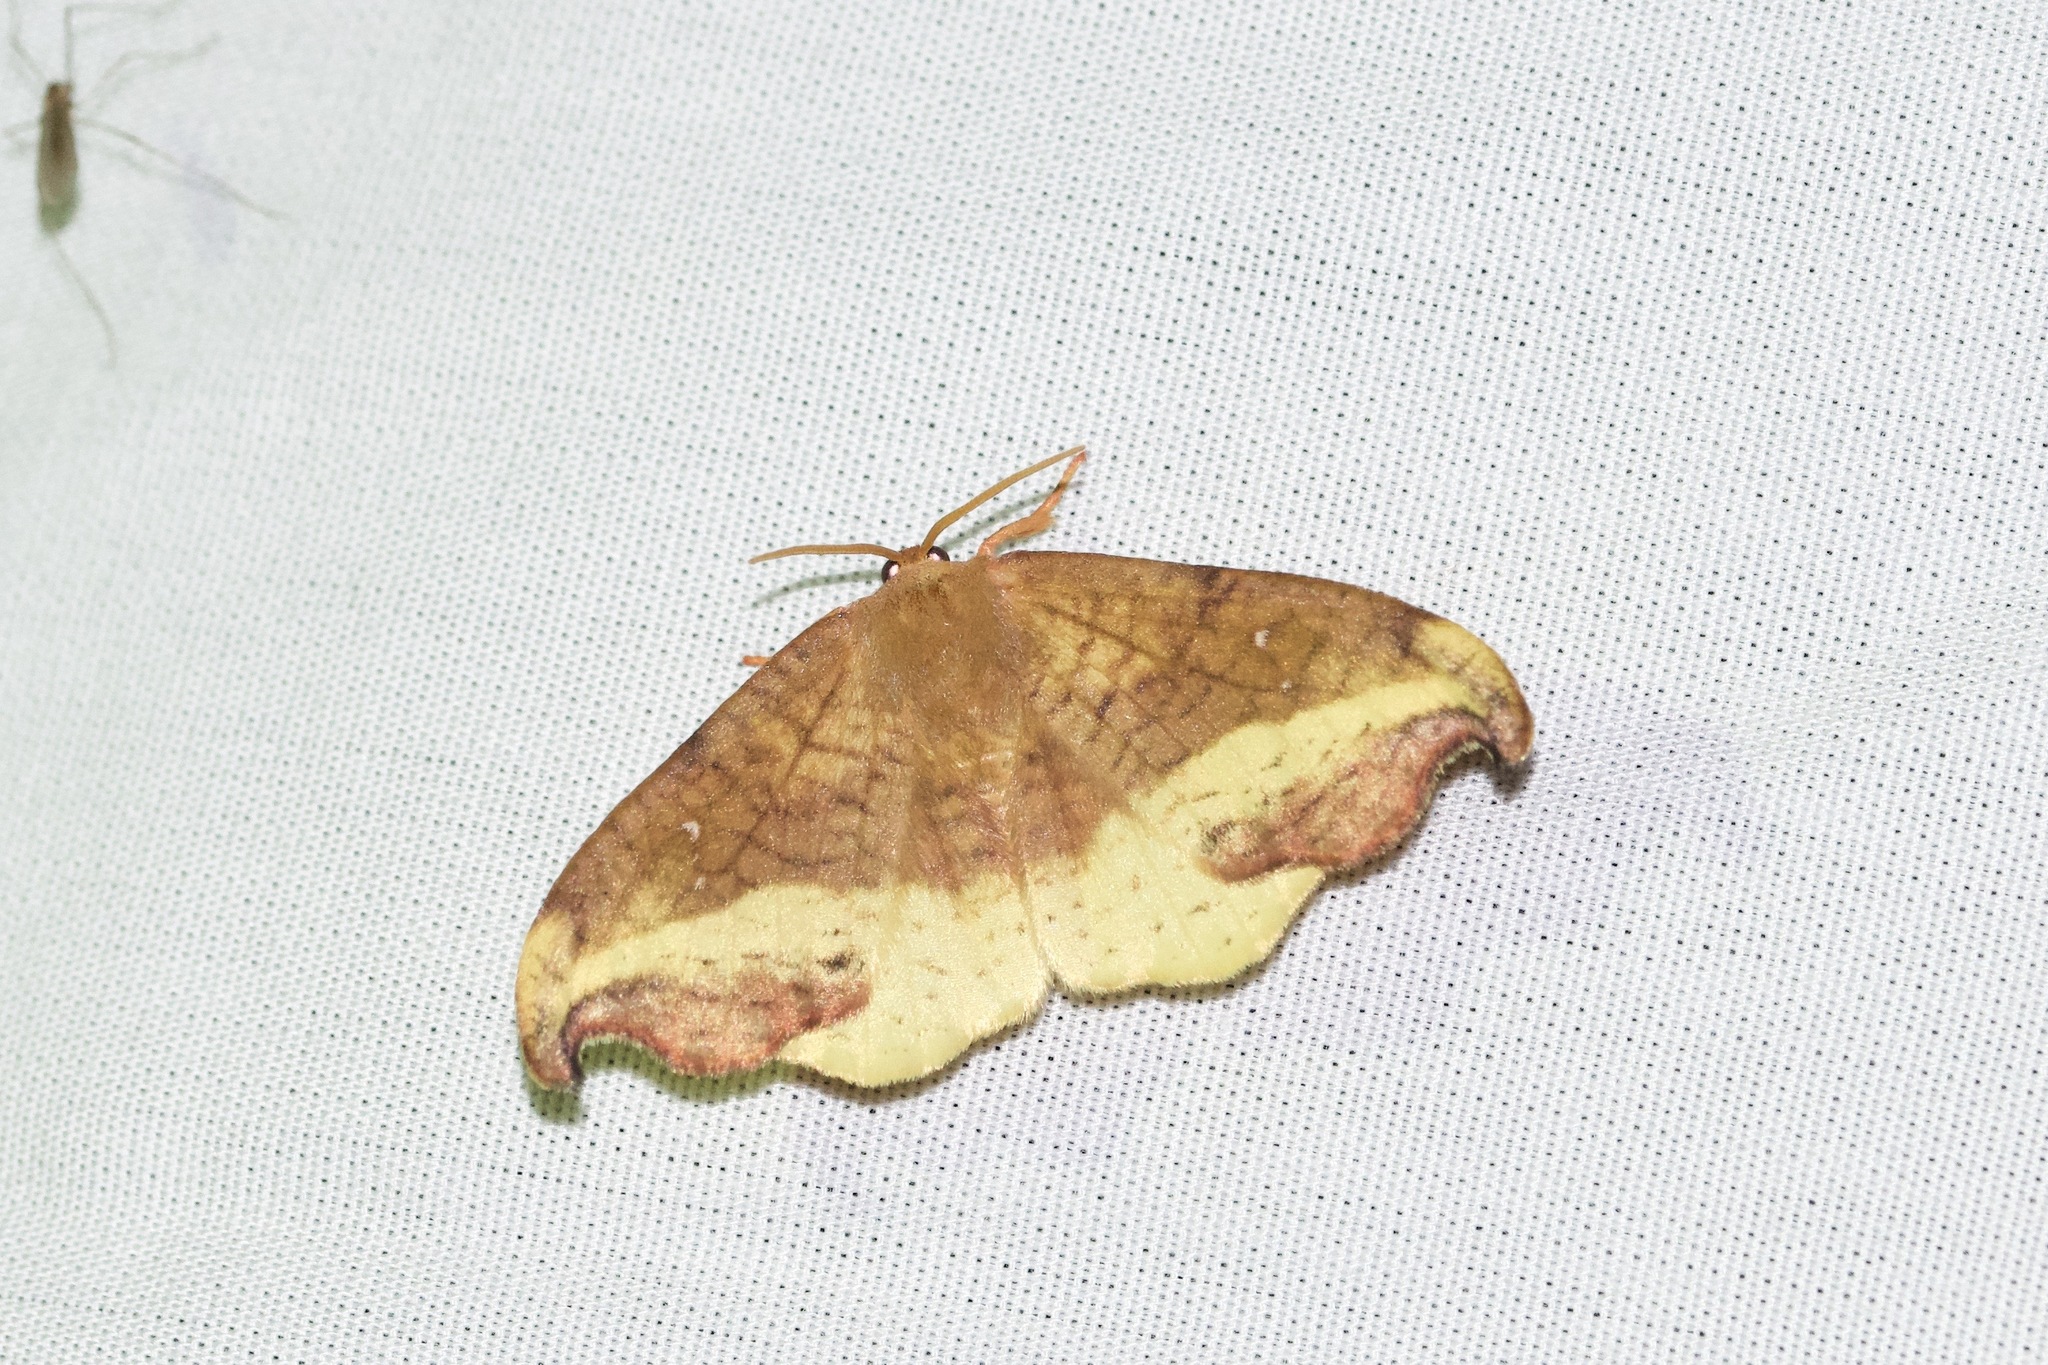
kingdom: Animalia
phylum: Arthropoda
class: Insecta
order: Lepidoptera
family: Drepanidae
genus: Oreta
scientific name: Oreta rosea
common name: Rose hooktip
